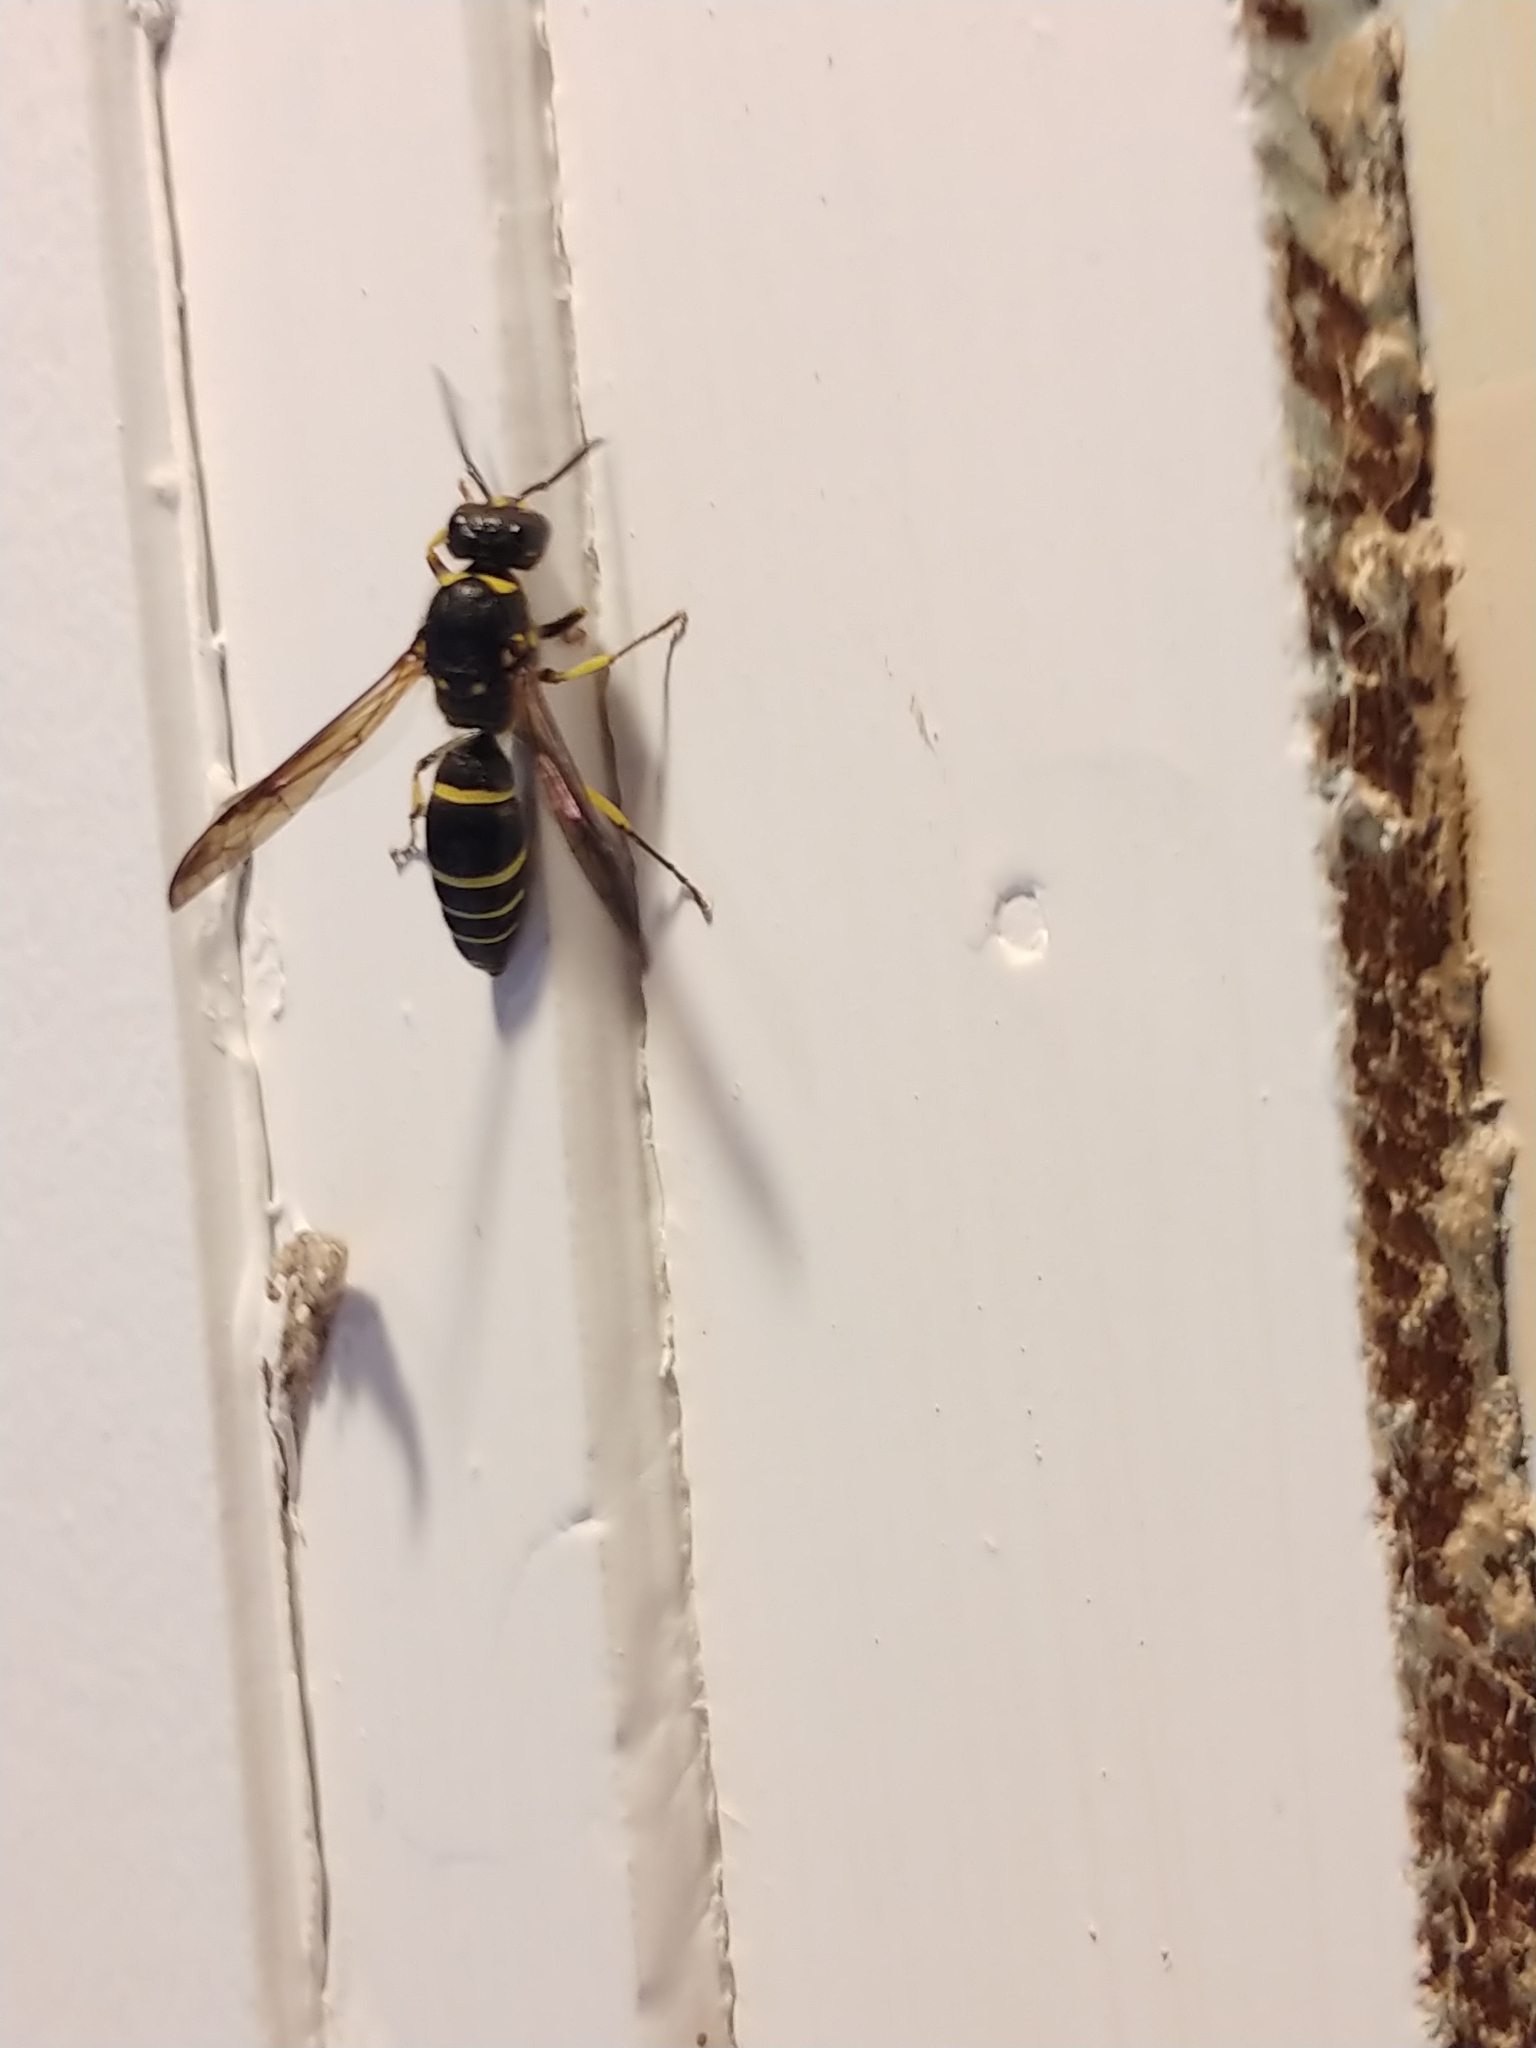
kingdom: Animalia
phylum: Arthropoda
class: Insecta
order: Hymenoptera
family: Vespidae
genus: Ancistrocerus
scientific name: Ancistrocerus
